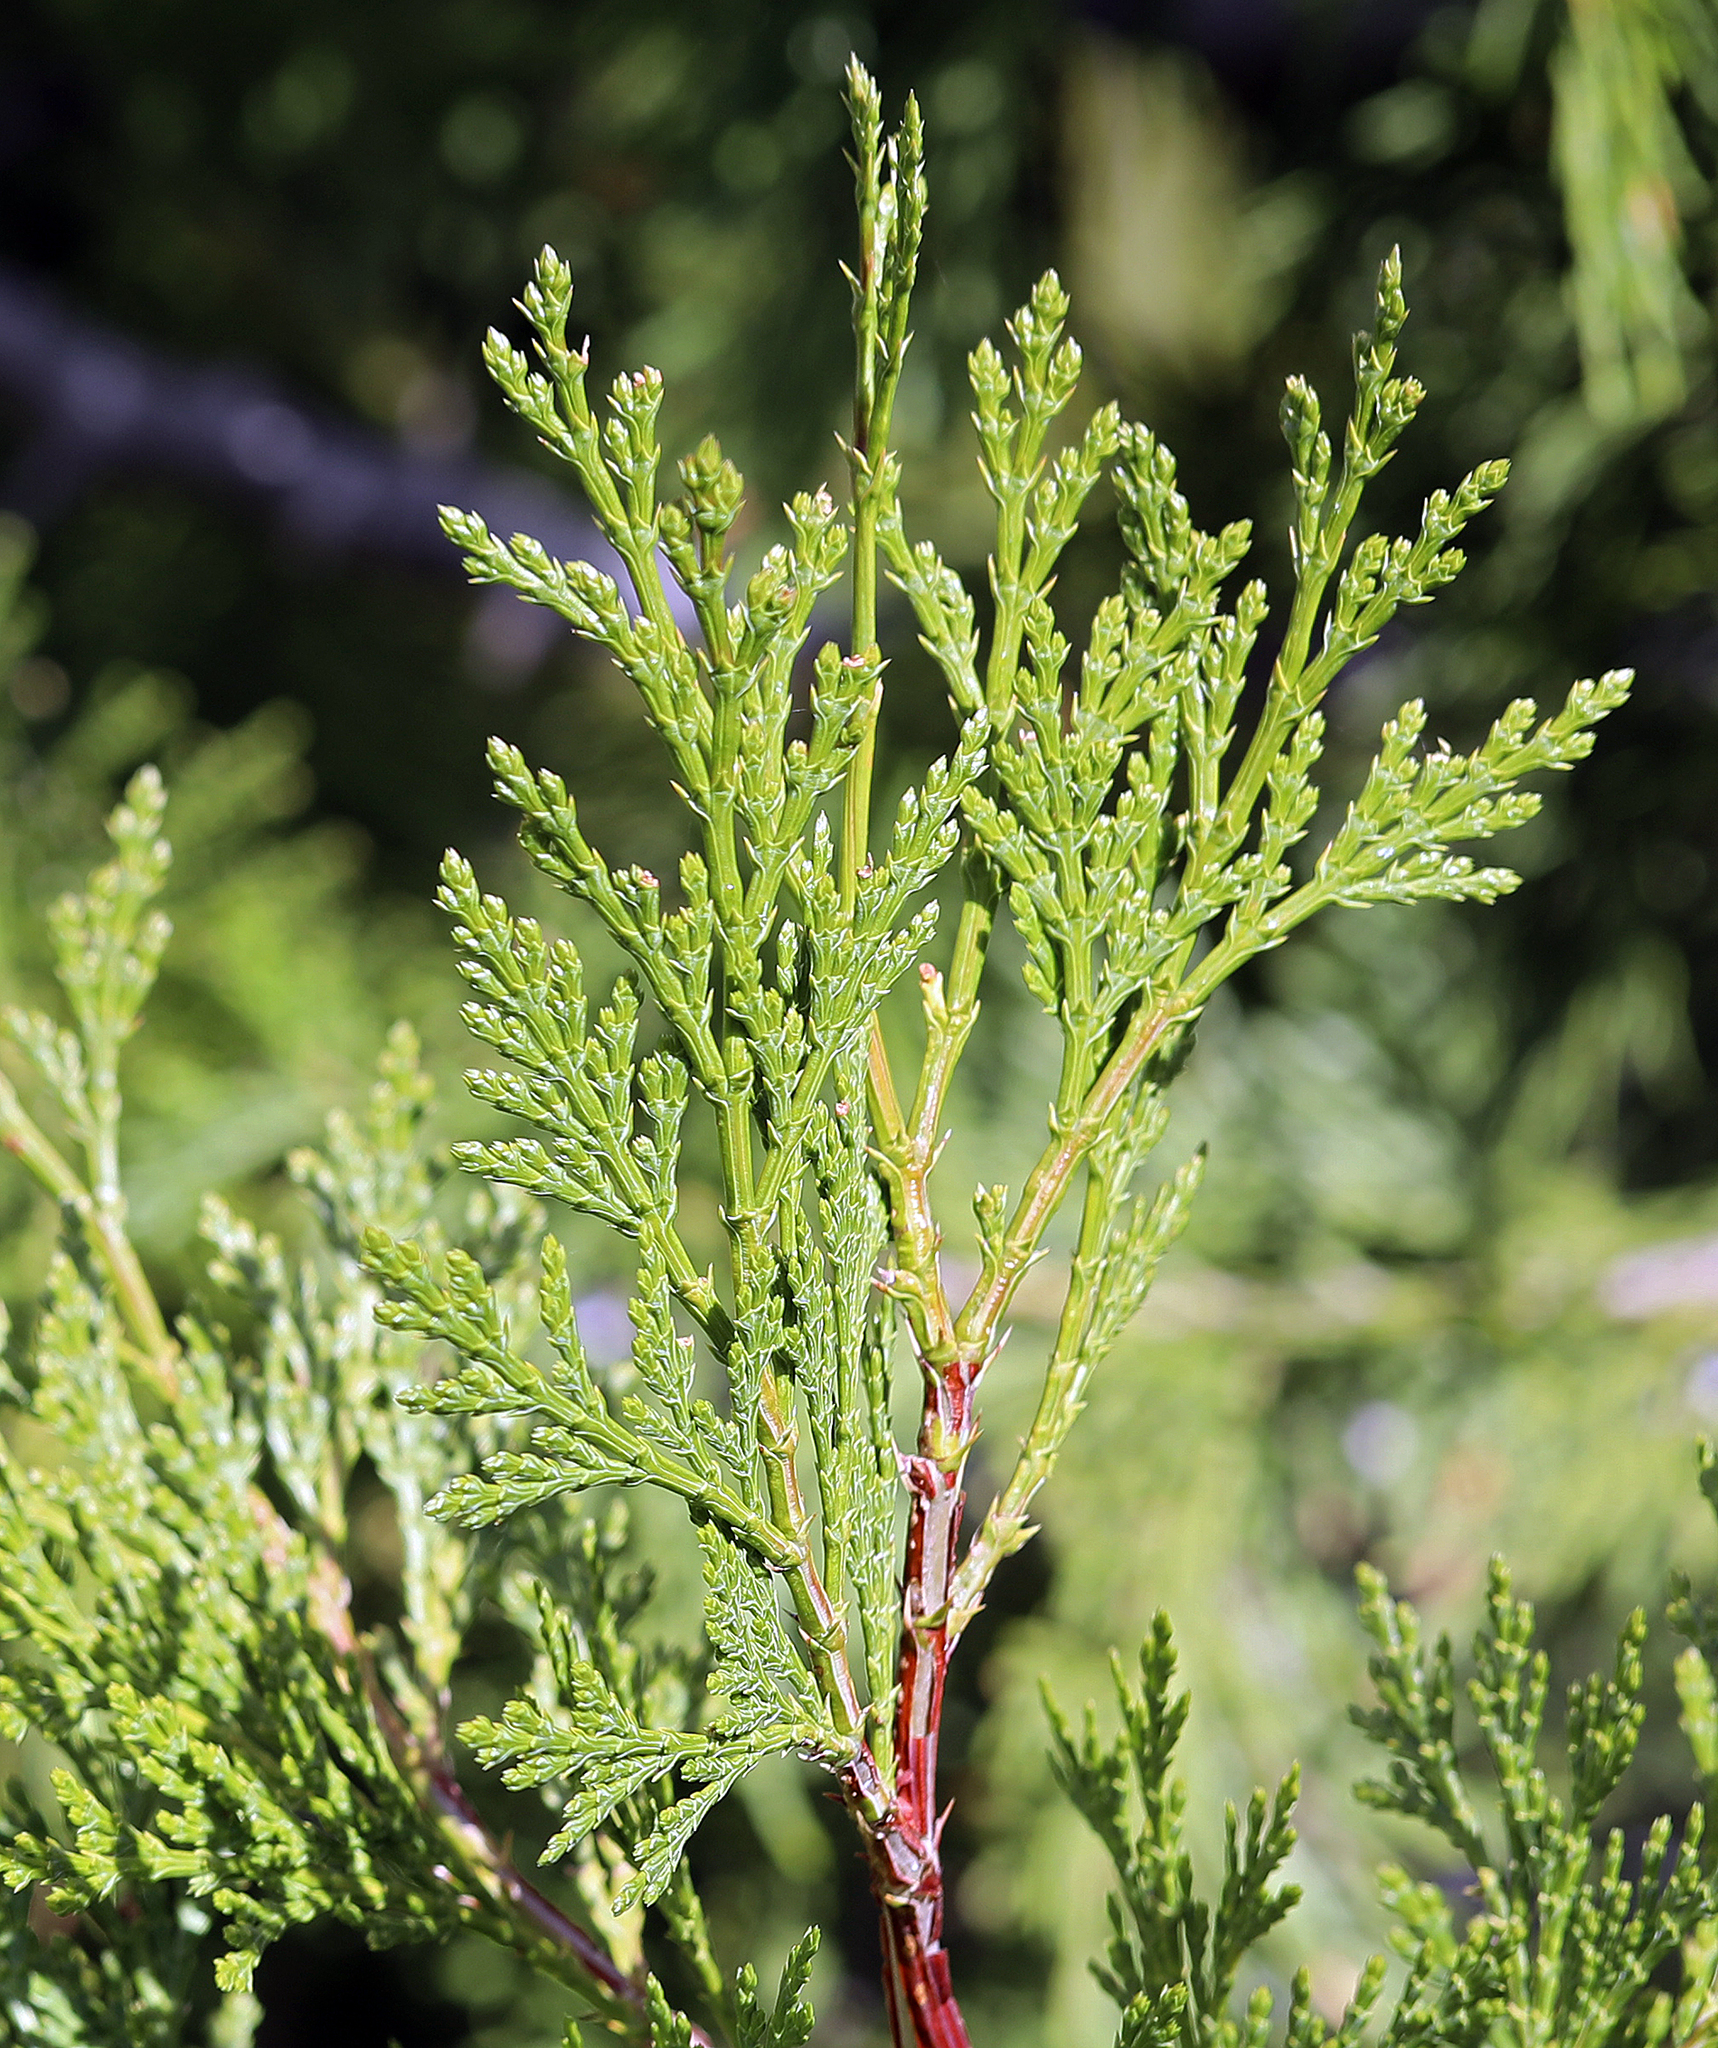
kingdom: Plantae
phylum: Tracheophyta
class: Pinopsida
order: Pinales
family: Cupressaceae
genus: Calocedrus
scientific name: Calocedrus decurrens
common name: Californian incense-cedar
